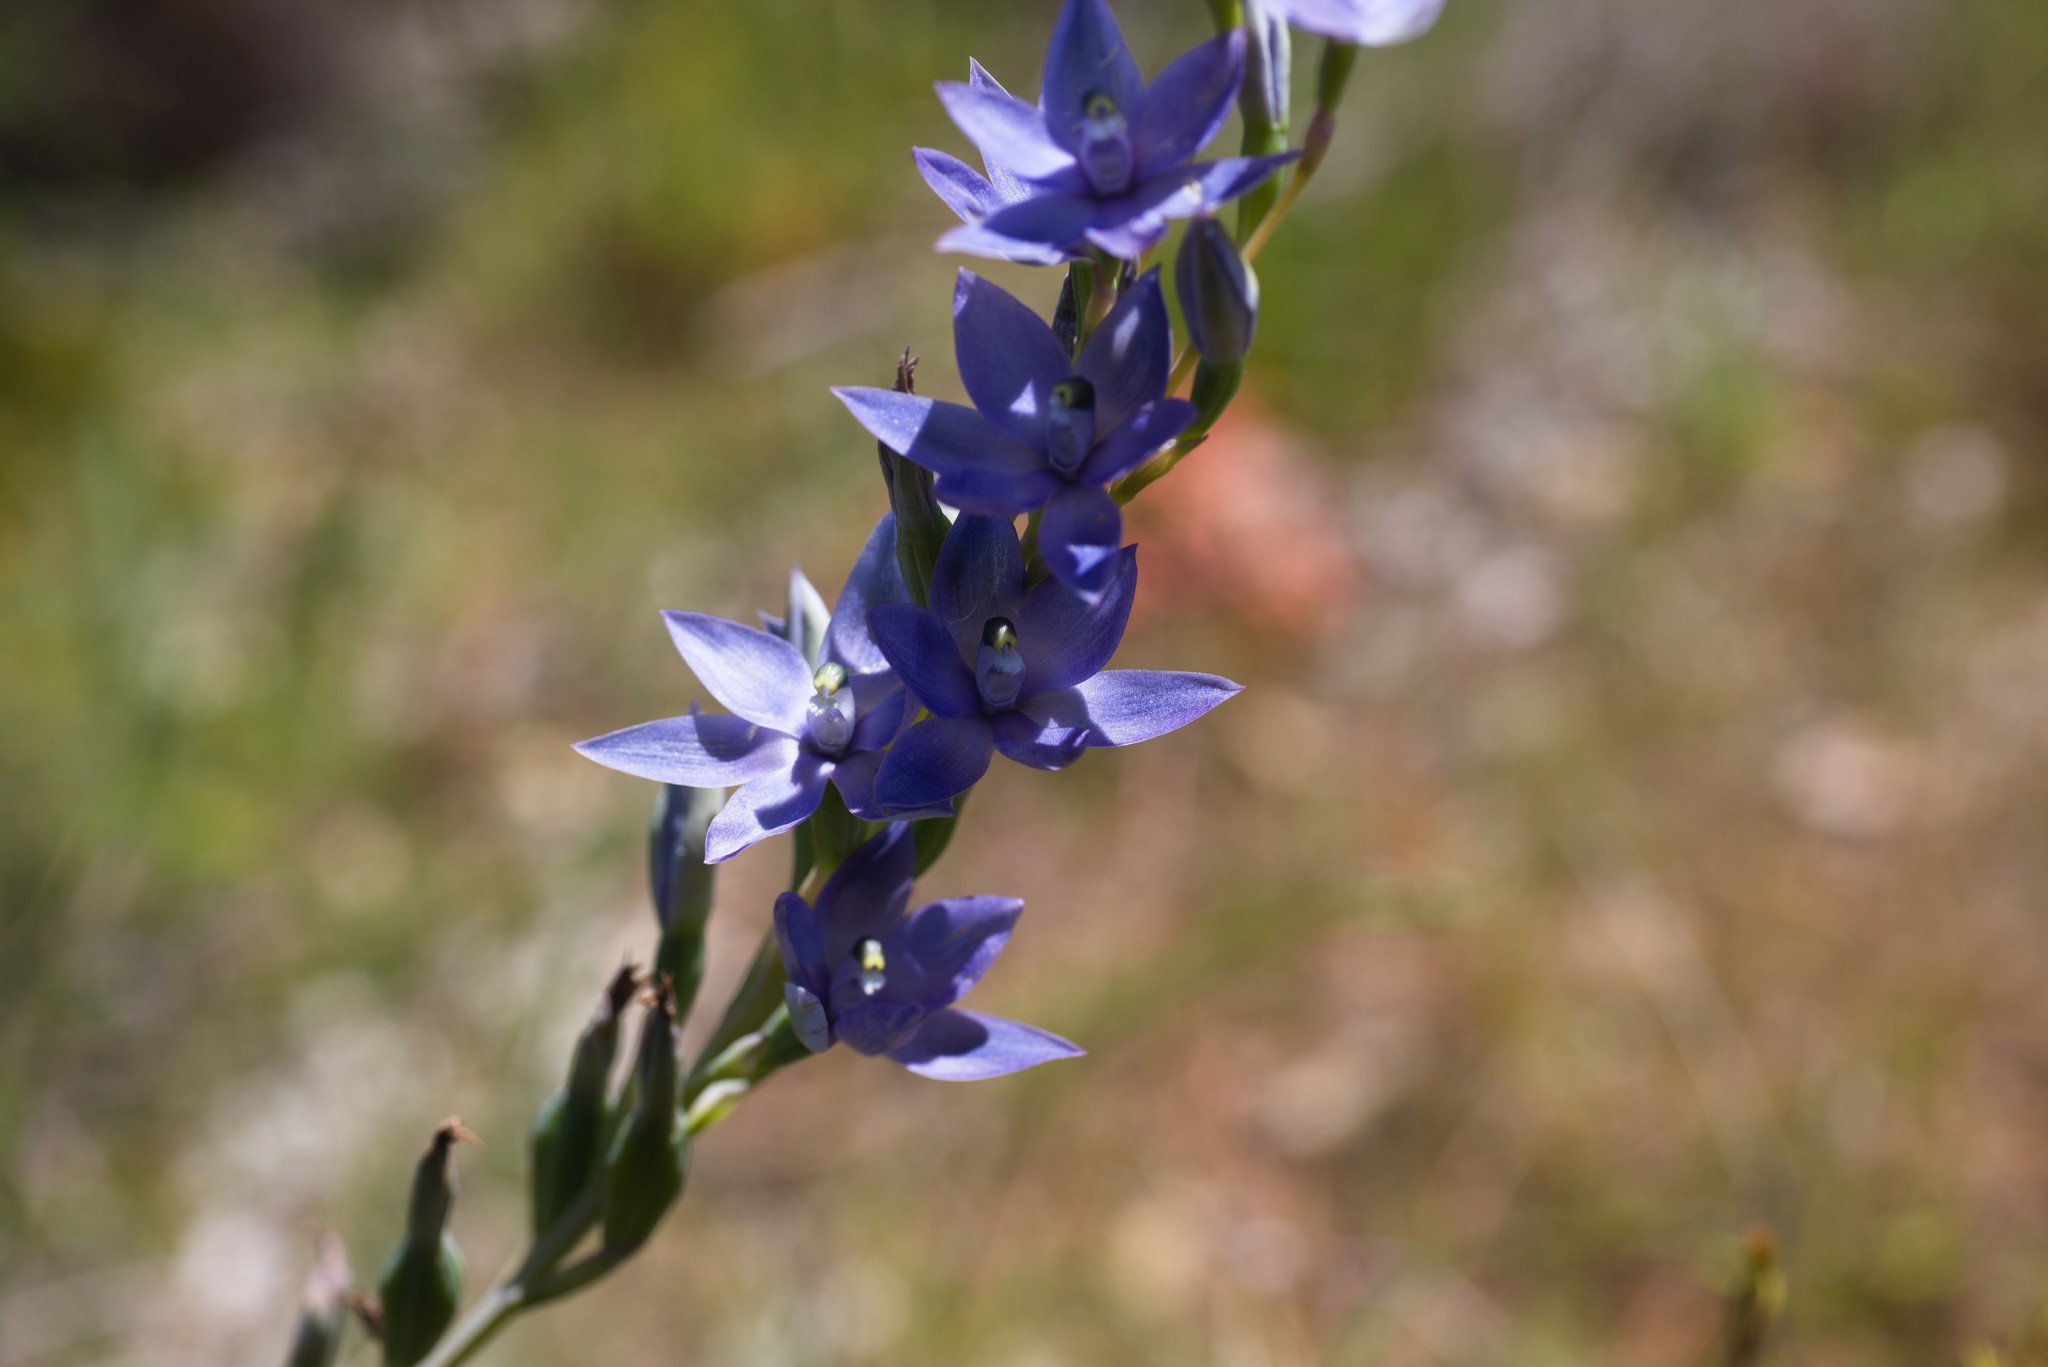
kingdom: Plantae
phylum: Tracheophyta
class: Liliopsida
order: Asparagales
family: Orchidaceae
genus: Thelymitra
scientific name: Thelymitra macrophylla
